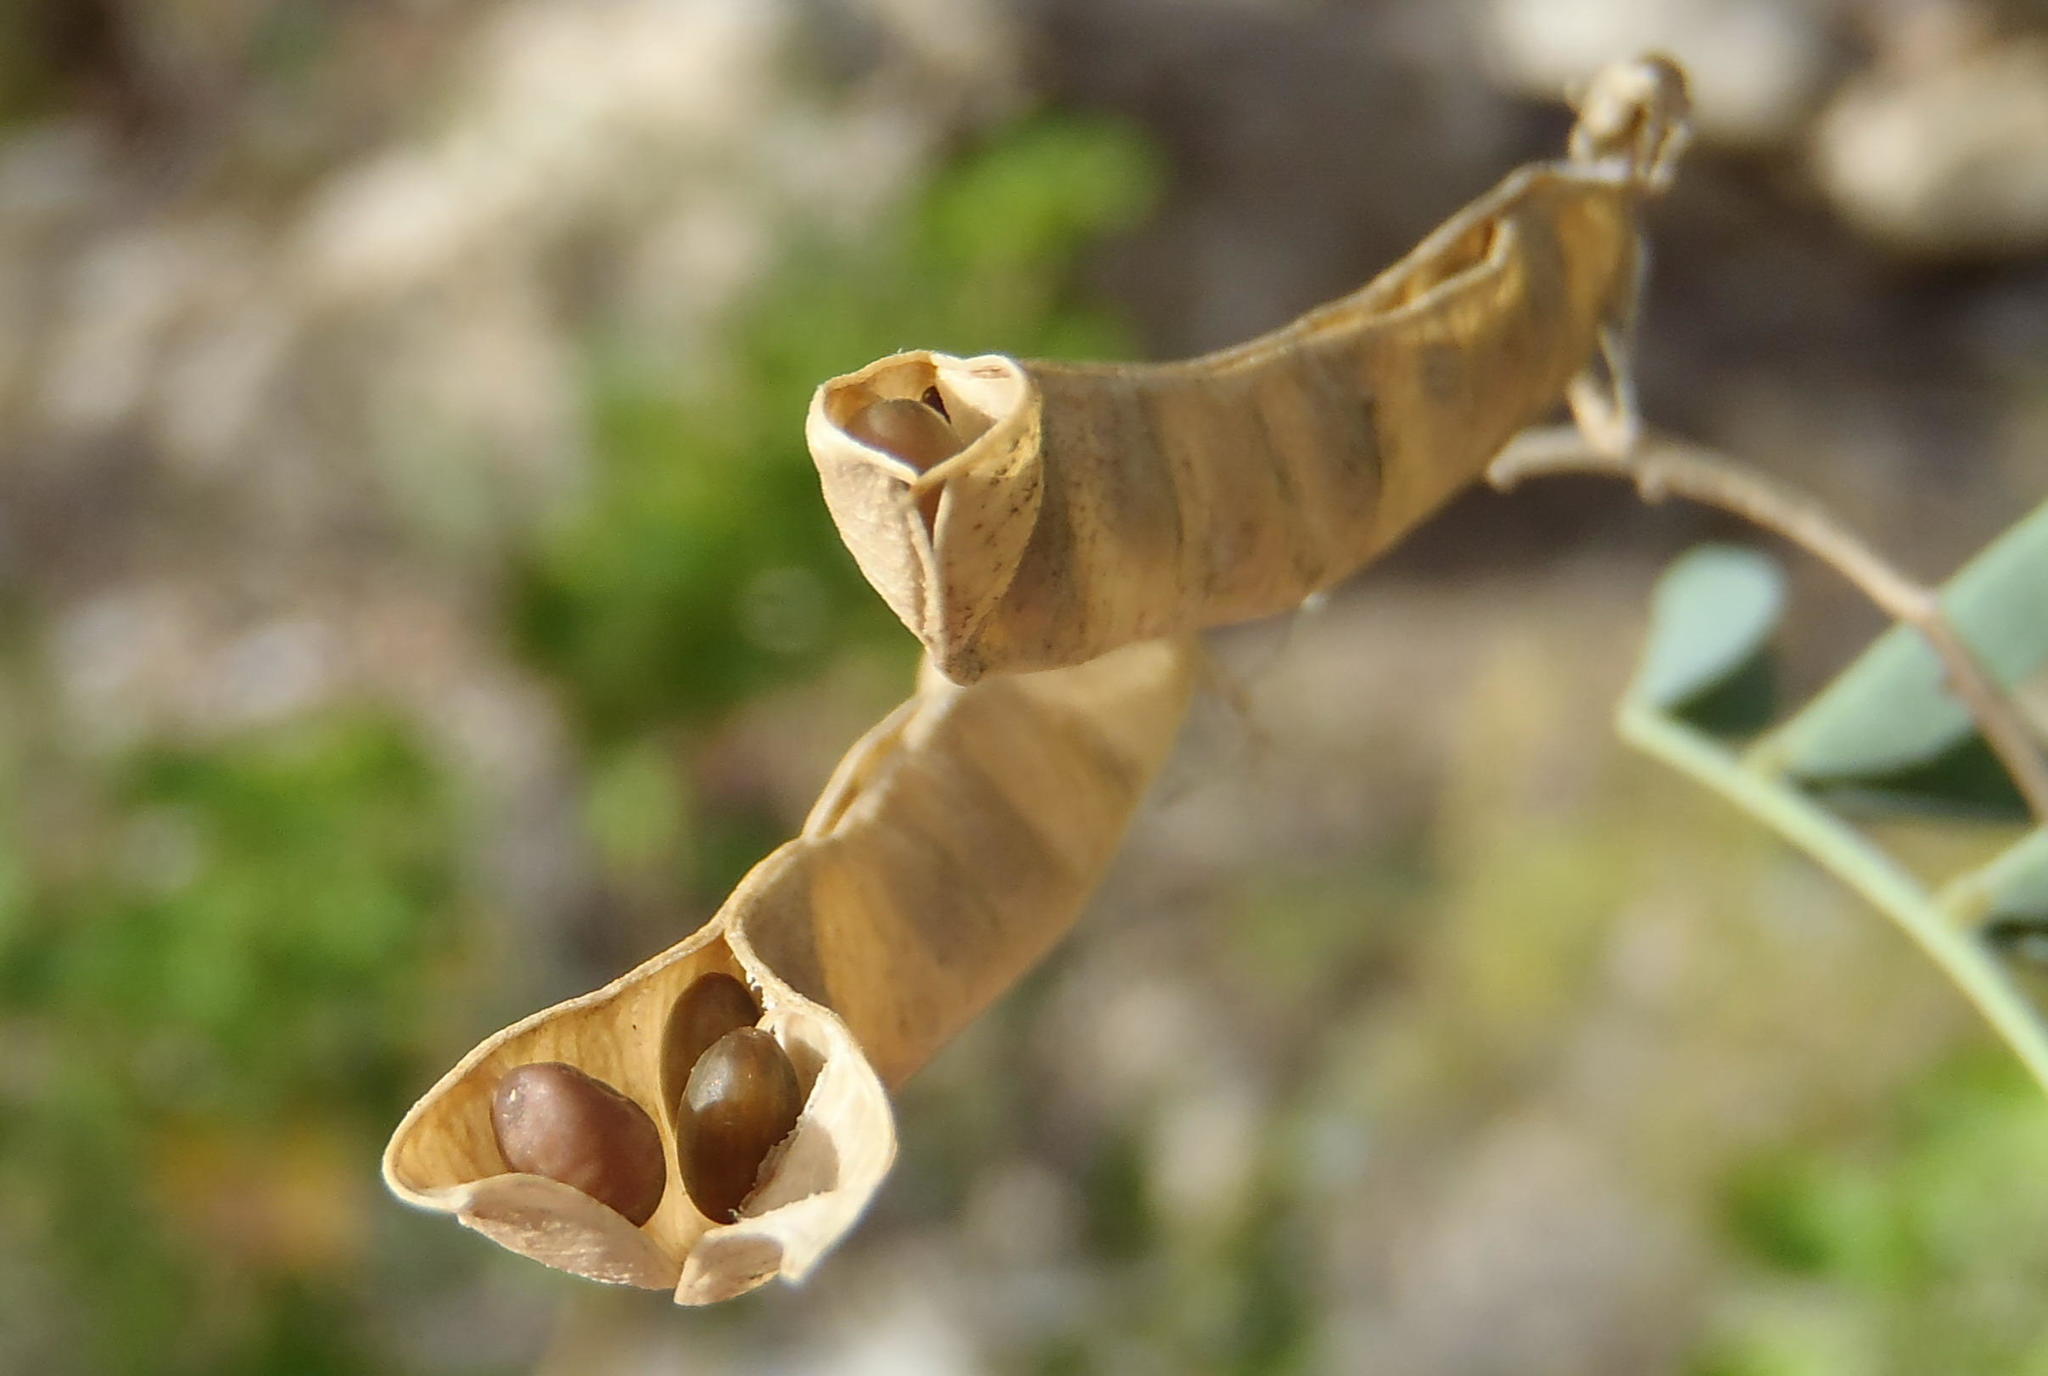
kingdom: Plantae
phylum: Tracheophyta
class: Magnoliopsida
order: Fabales
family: Fabaceae
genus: Calpurnia
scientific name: Calpurnia intrusa
